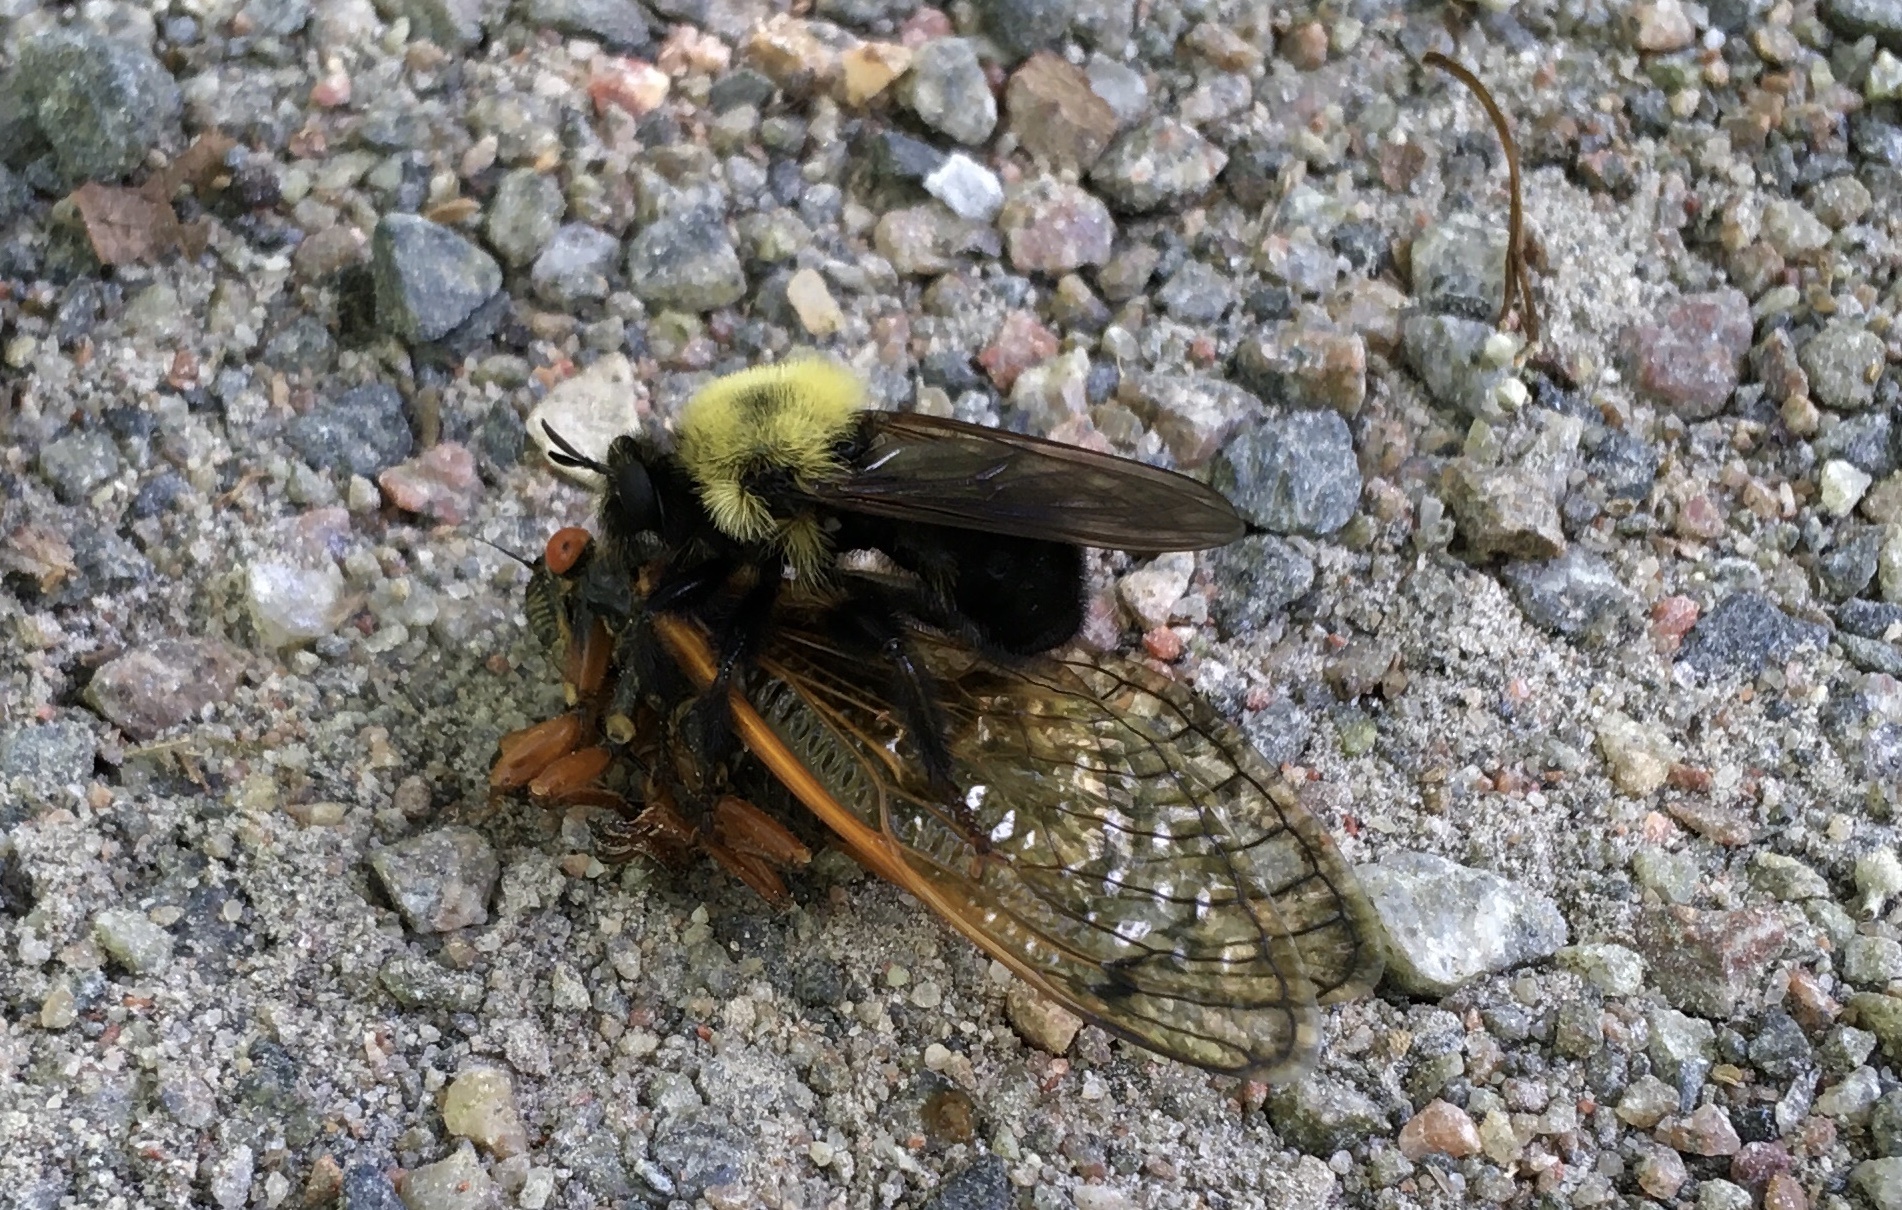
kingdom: Animalia
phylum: Arthropoda
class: Insecta
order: Hemiptera
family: Cicadidae
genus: Magicicada
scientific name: Magicicada cassini
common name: Cassin's 17-year cicada
